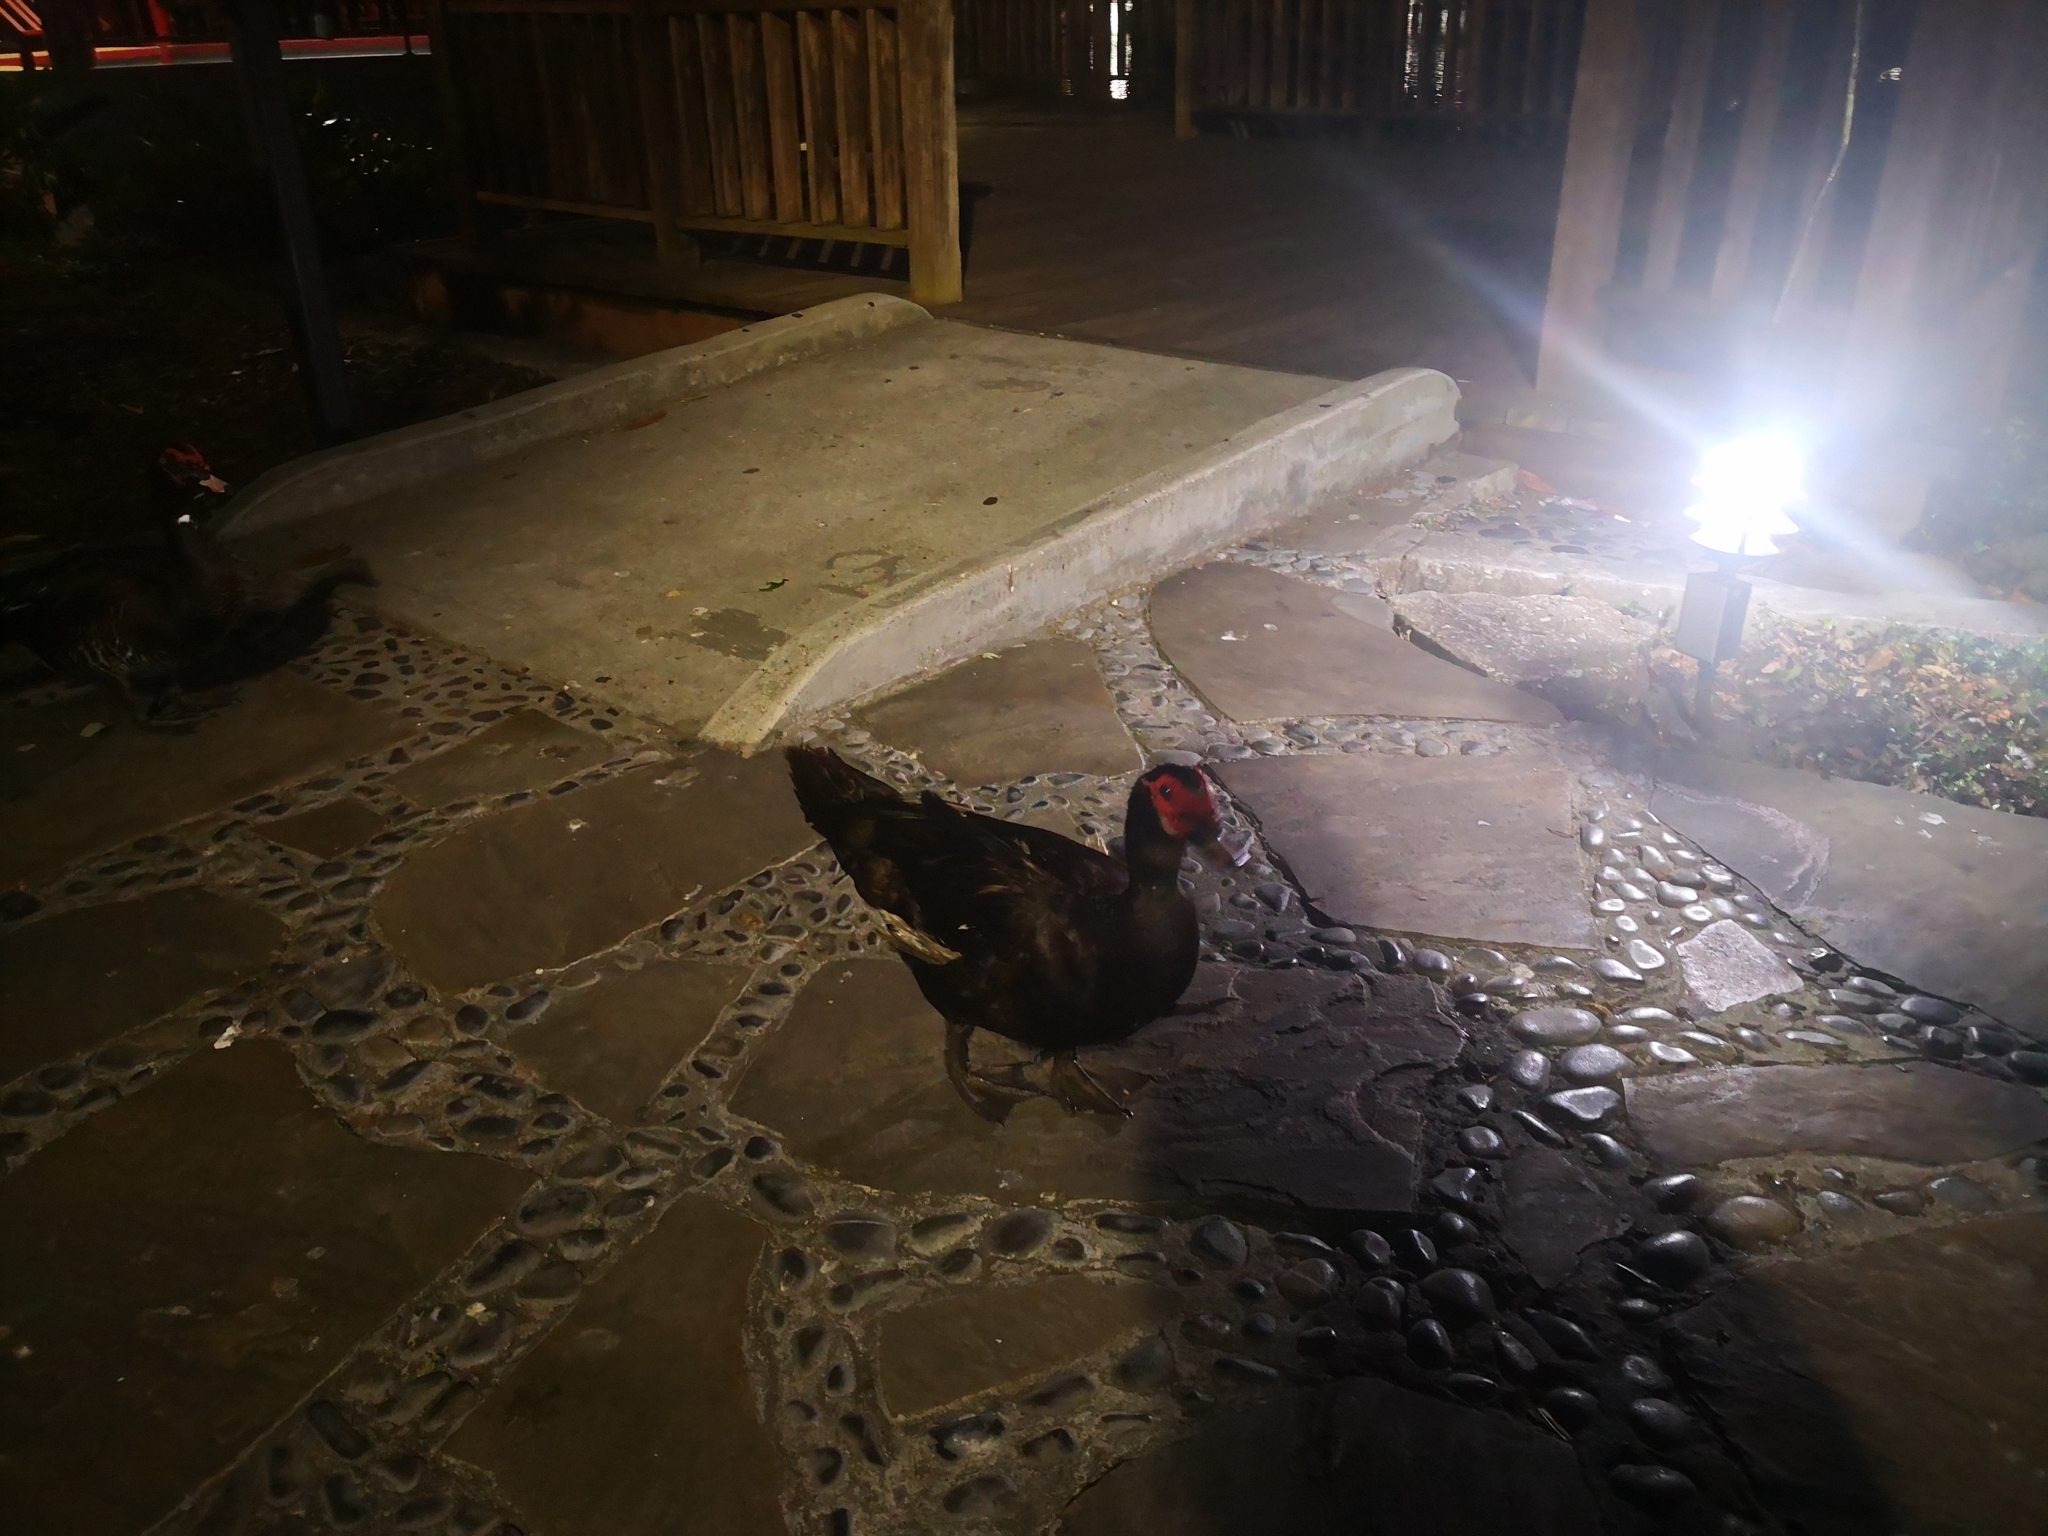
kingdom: Animalia
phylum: Chordata
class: Aves
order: Anseriformes
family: Anatidae
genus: Cairina
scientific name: Cairina moschata
